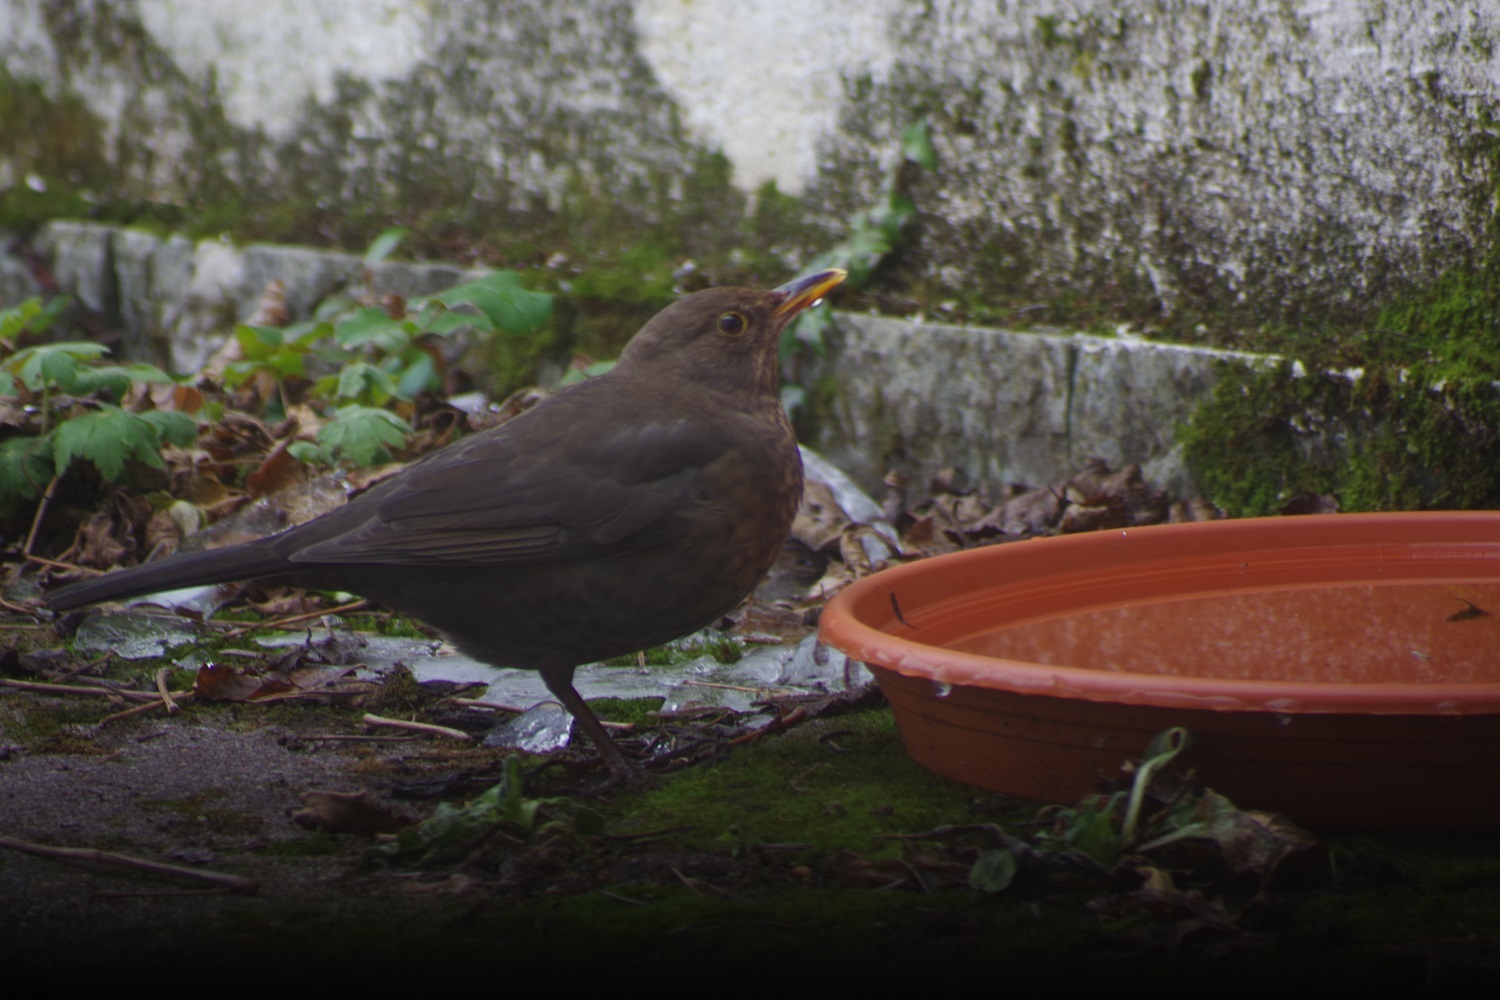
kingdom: Animalia
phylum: Chordata
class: Aves
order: Passeriformes
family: Turdidae
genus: Turdus
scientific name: Turdus merula
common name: Common blackbird
